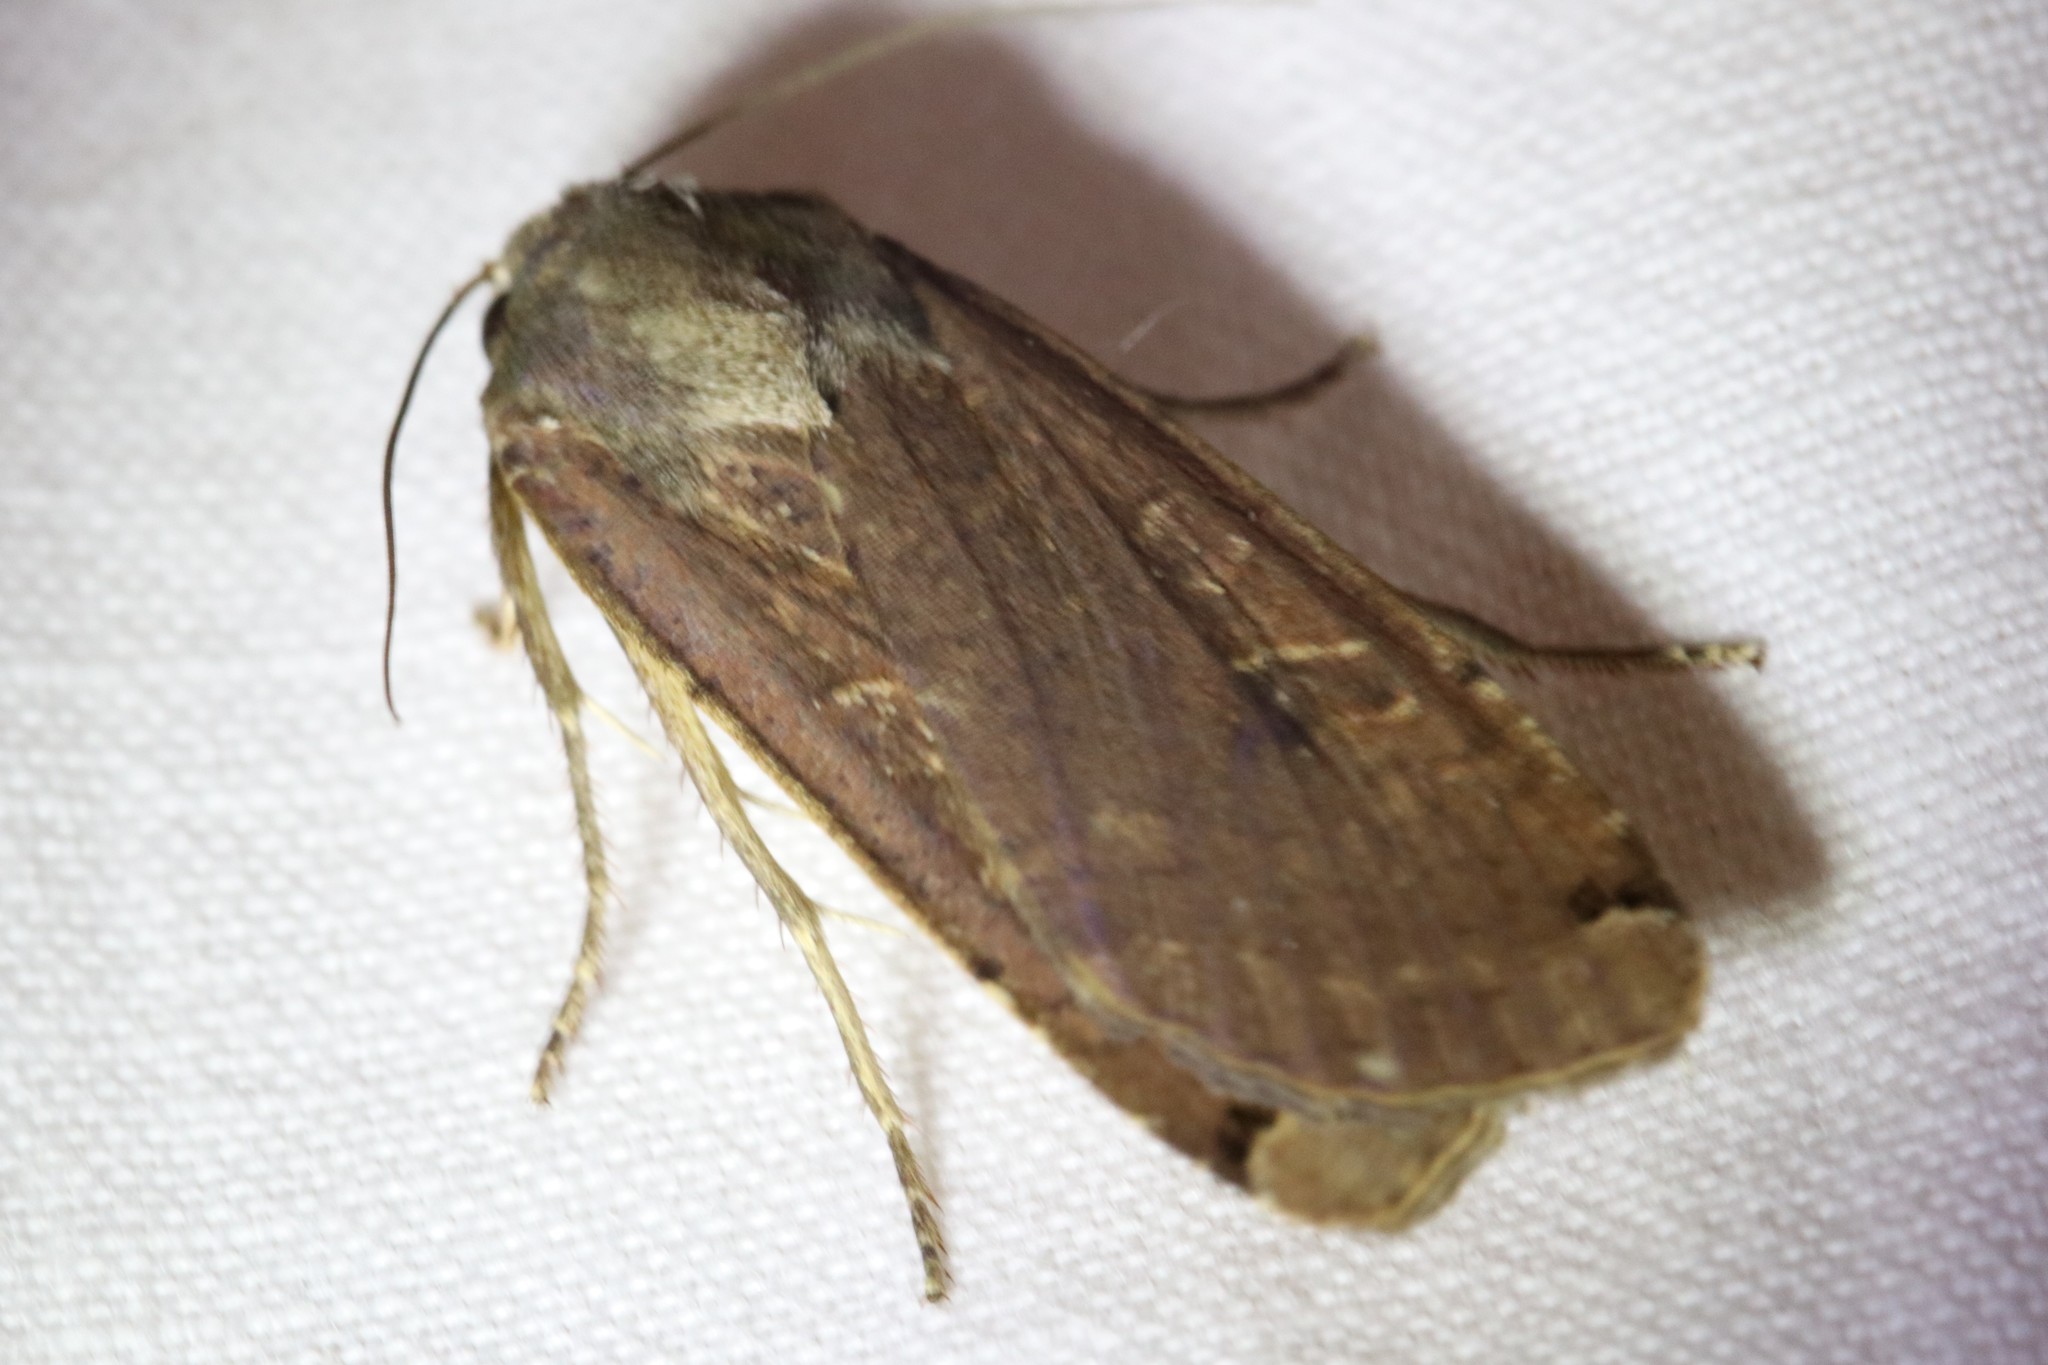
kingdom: Animalia
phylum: Arthropoda
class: Insecta
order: Lepidoptera
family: Noctuidae
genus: Noctua
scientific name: Noctua pronuba
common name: Large yellow underwing
